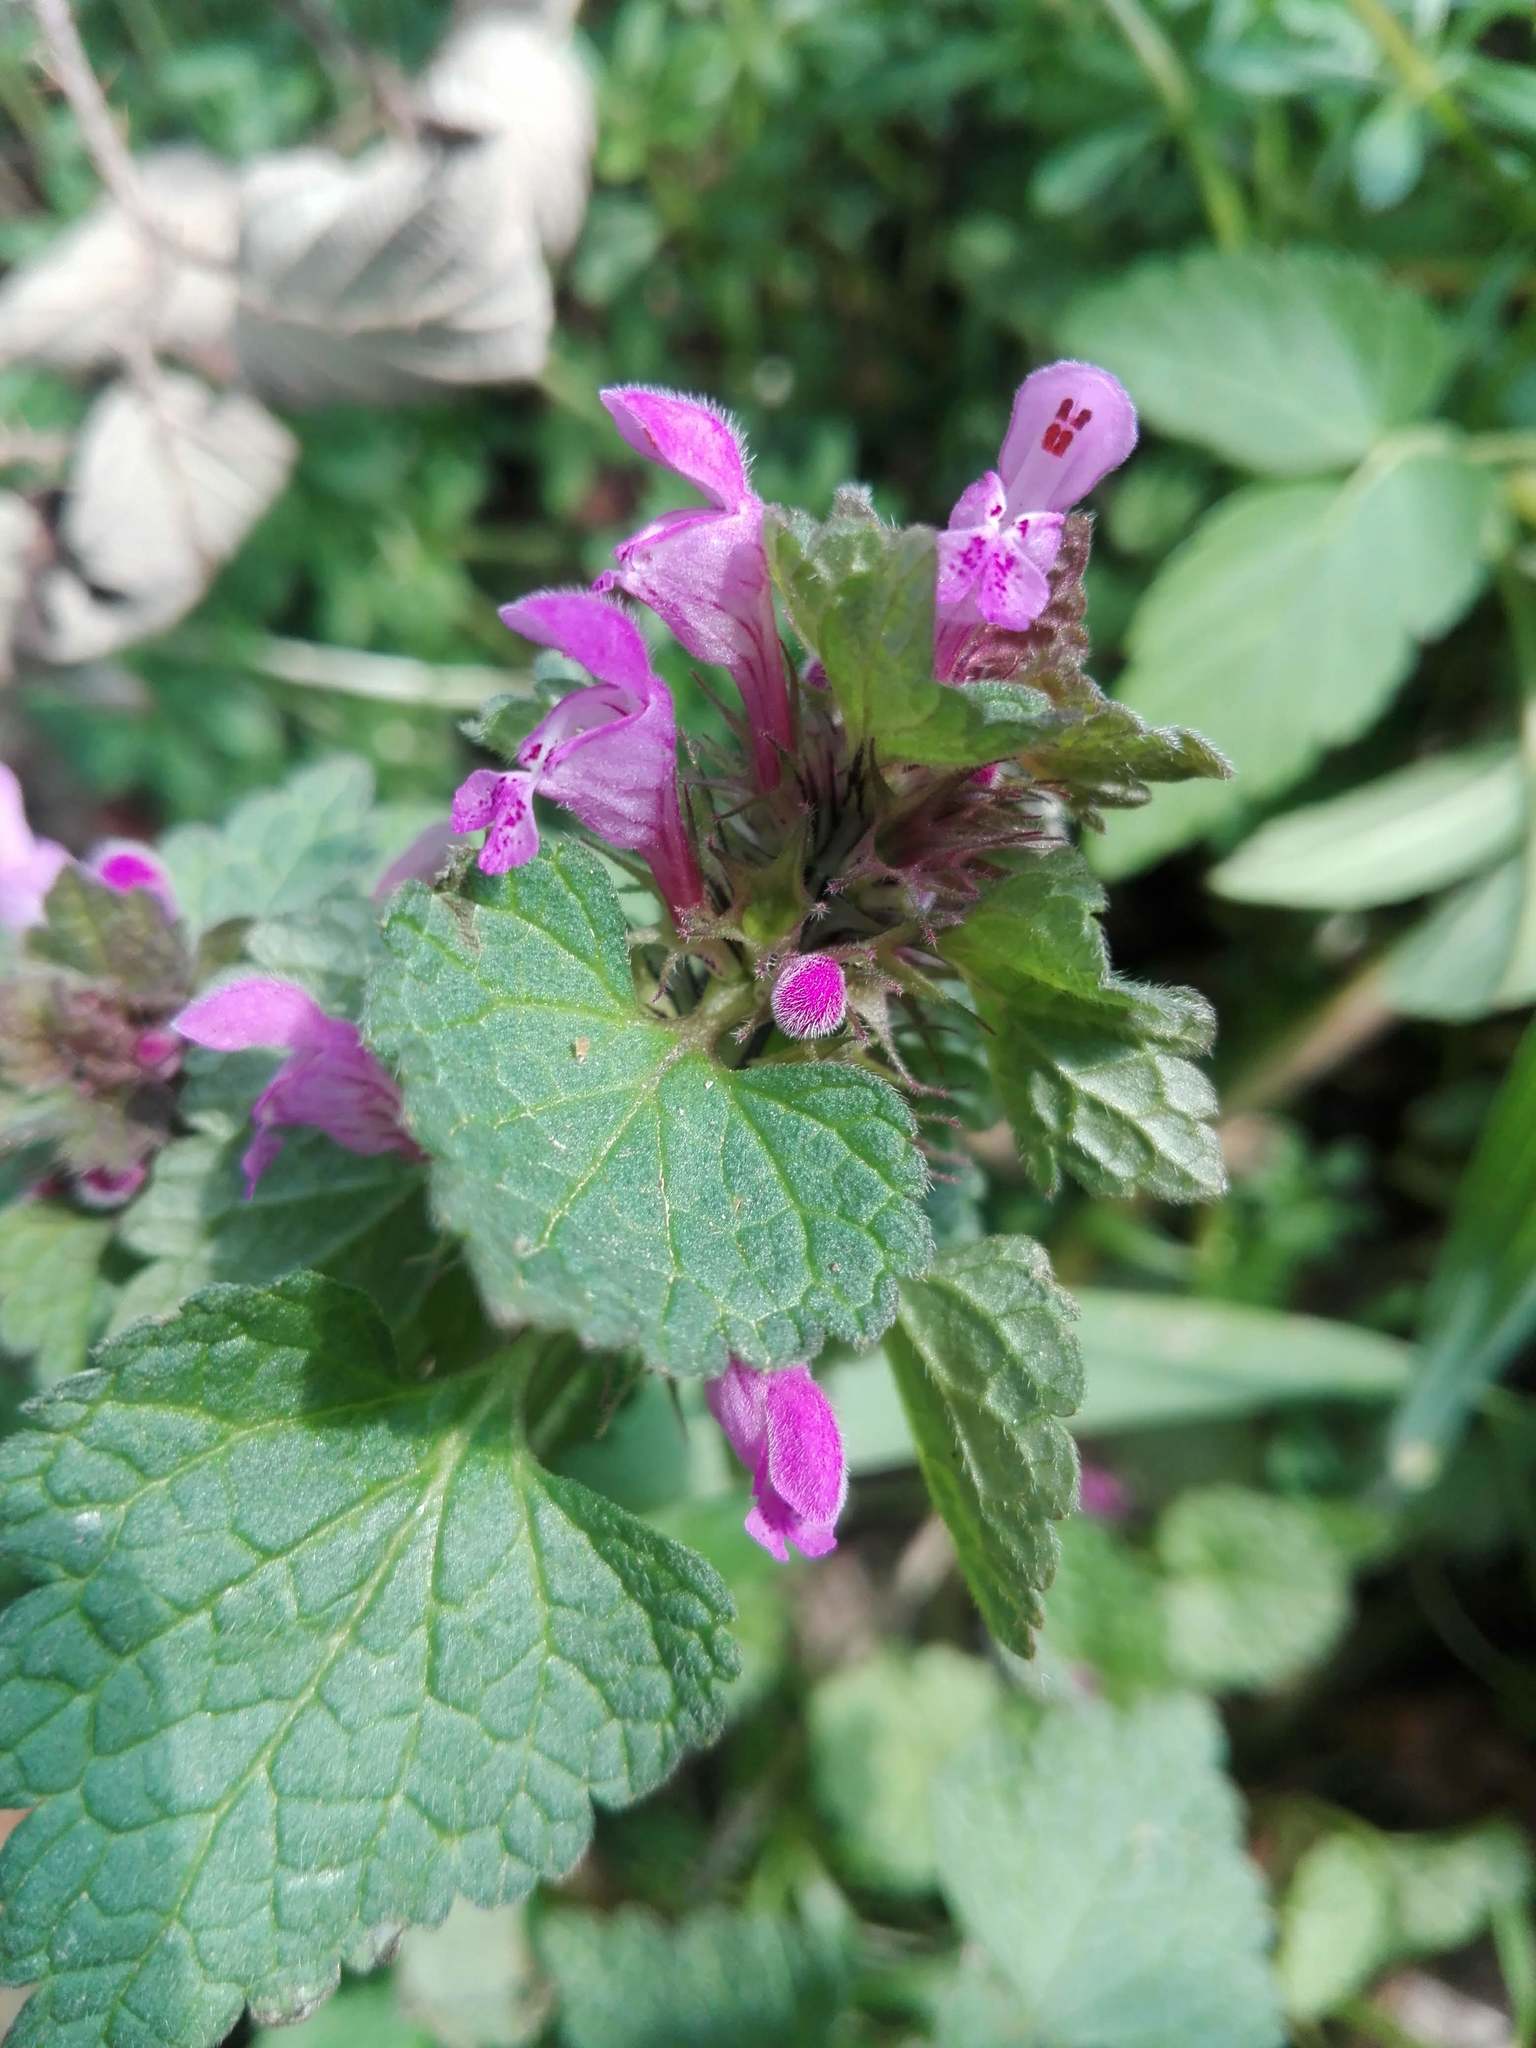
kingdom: Plantae
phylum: Tracheophyta
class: Magnoliopsida
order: Lamiales
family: Lamiaceae
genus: Lamium
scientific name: Lamium purpureum
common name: Red dead-nettle
